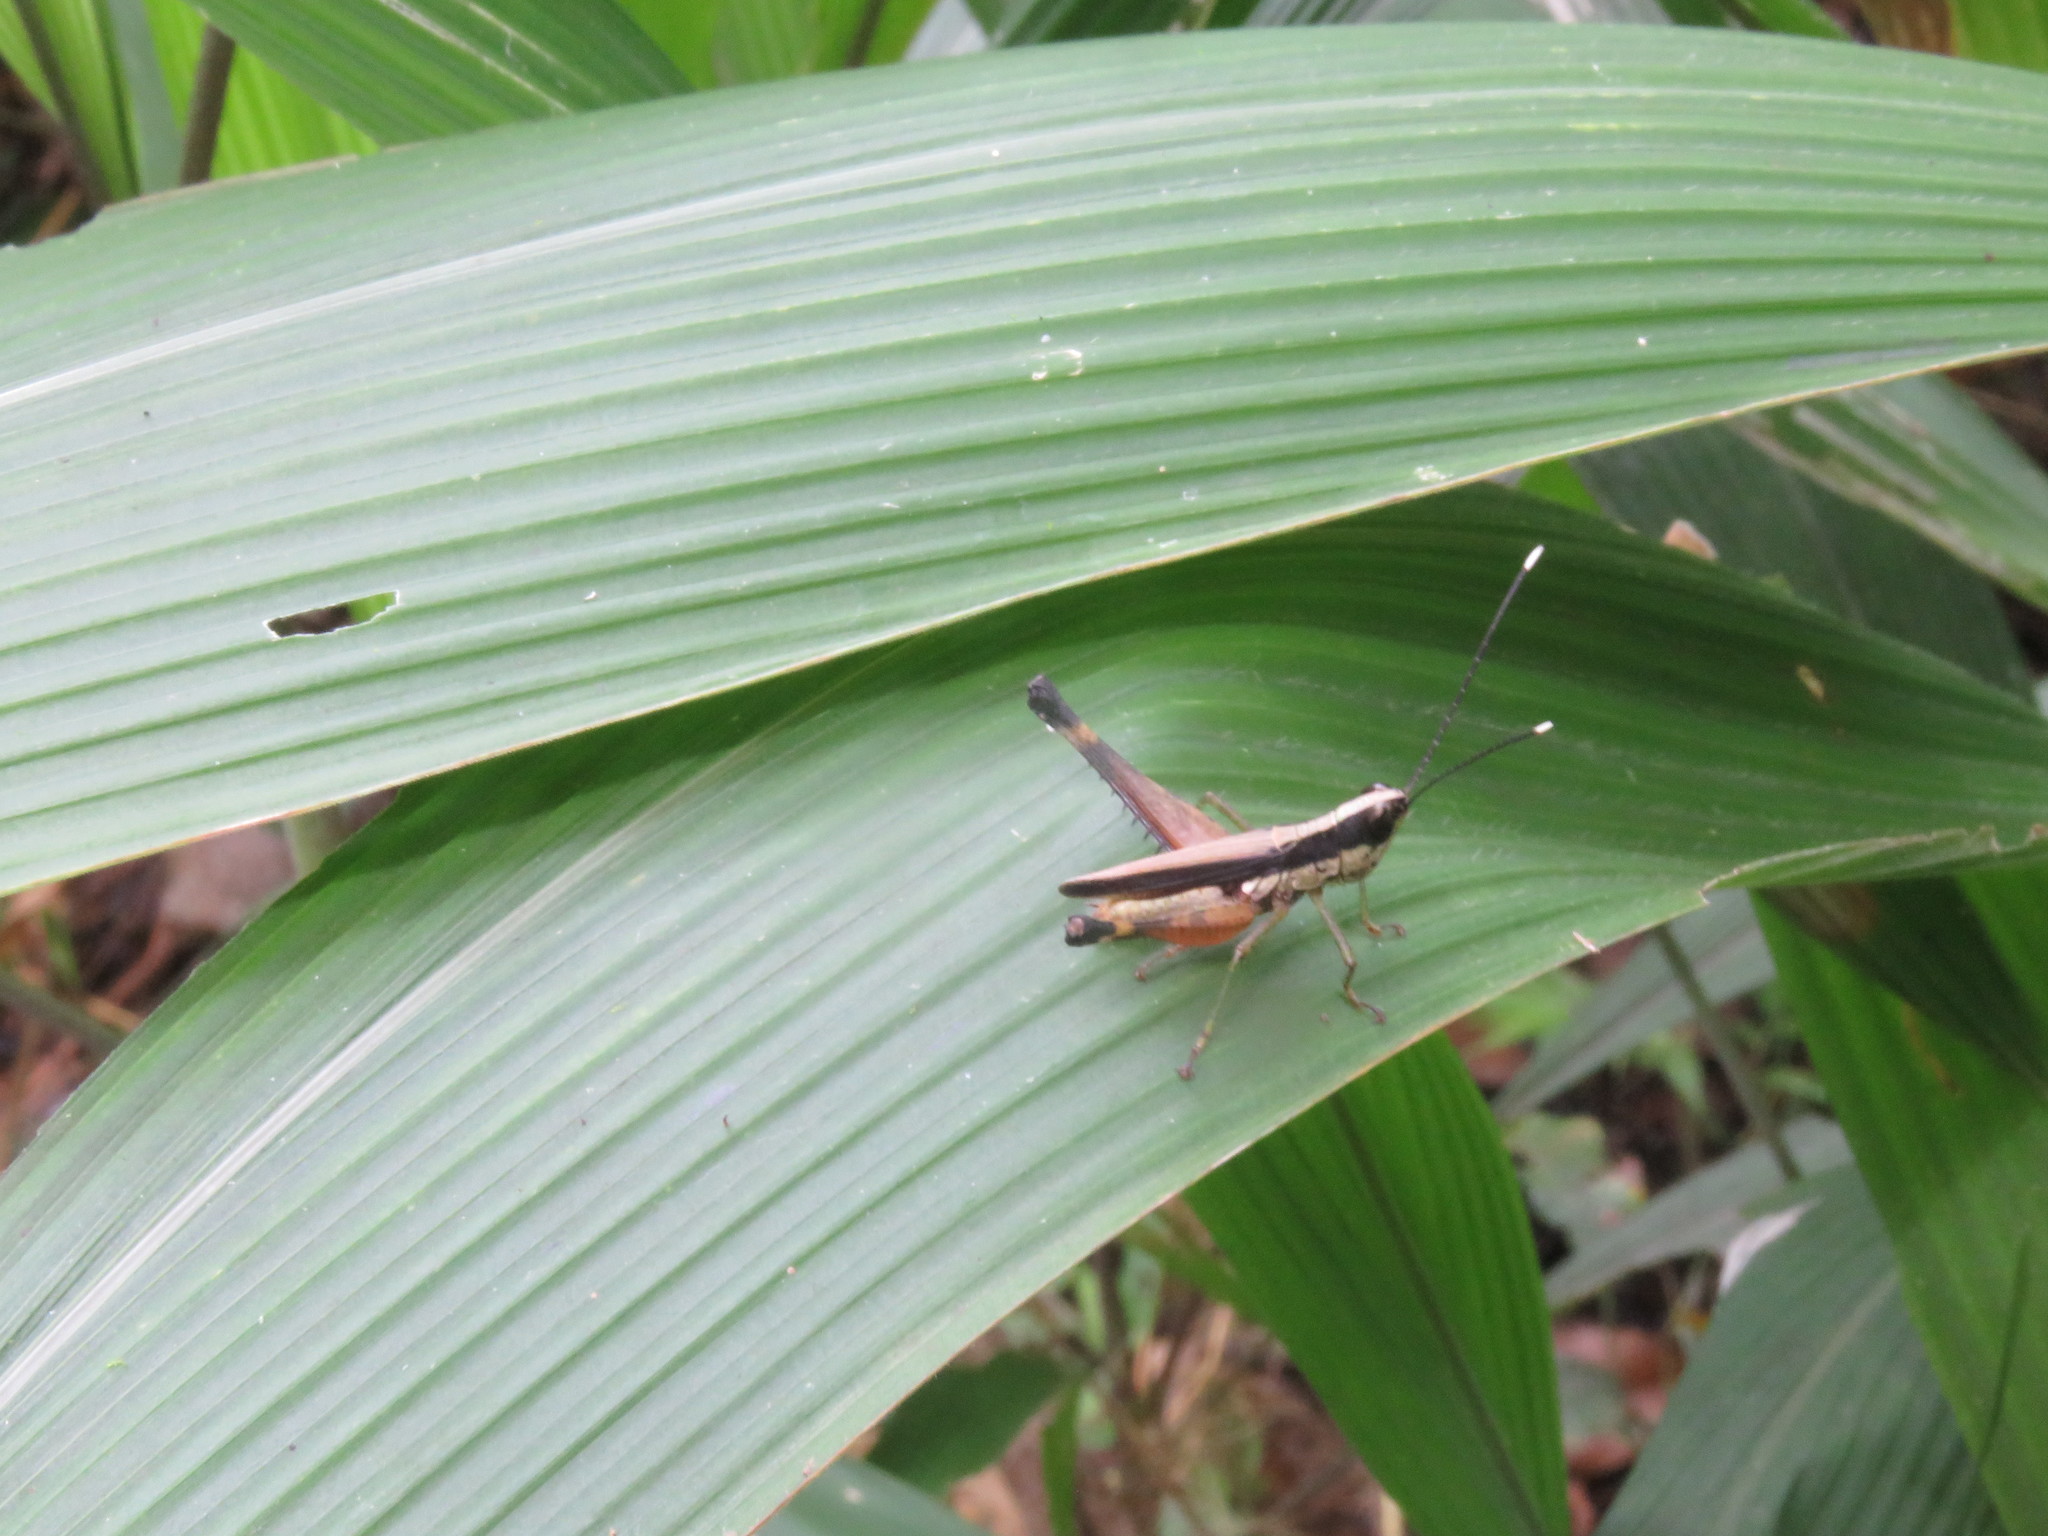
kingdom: Animalia
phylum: Arthropoda
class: Insecta
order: Orthoptera
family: Acrididae
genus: Compsacris
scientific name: Compsacris pulcher
